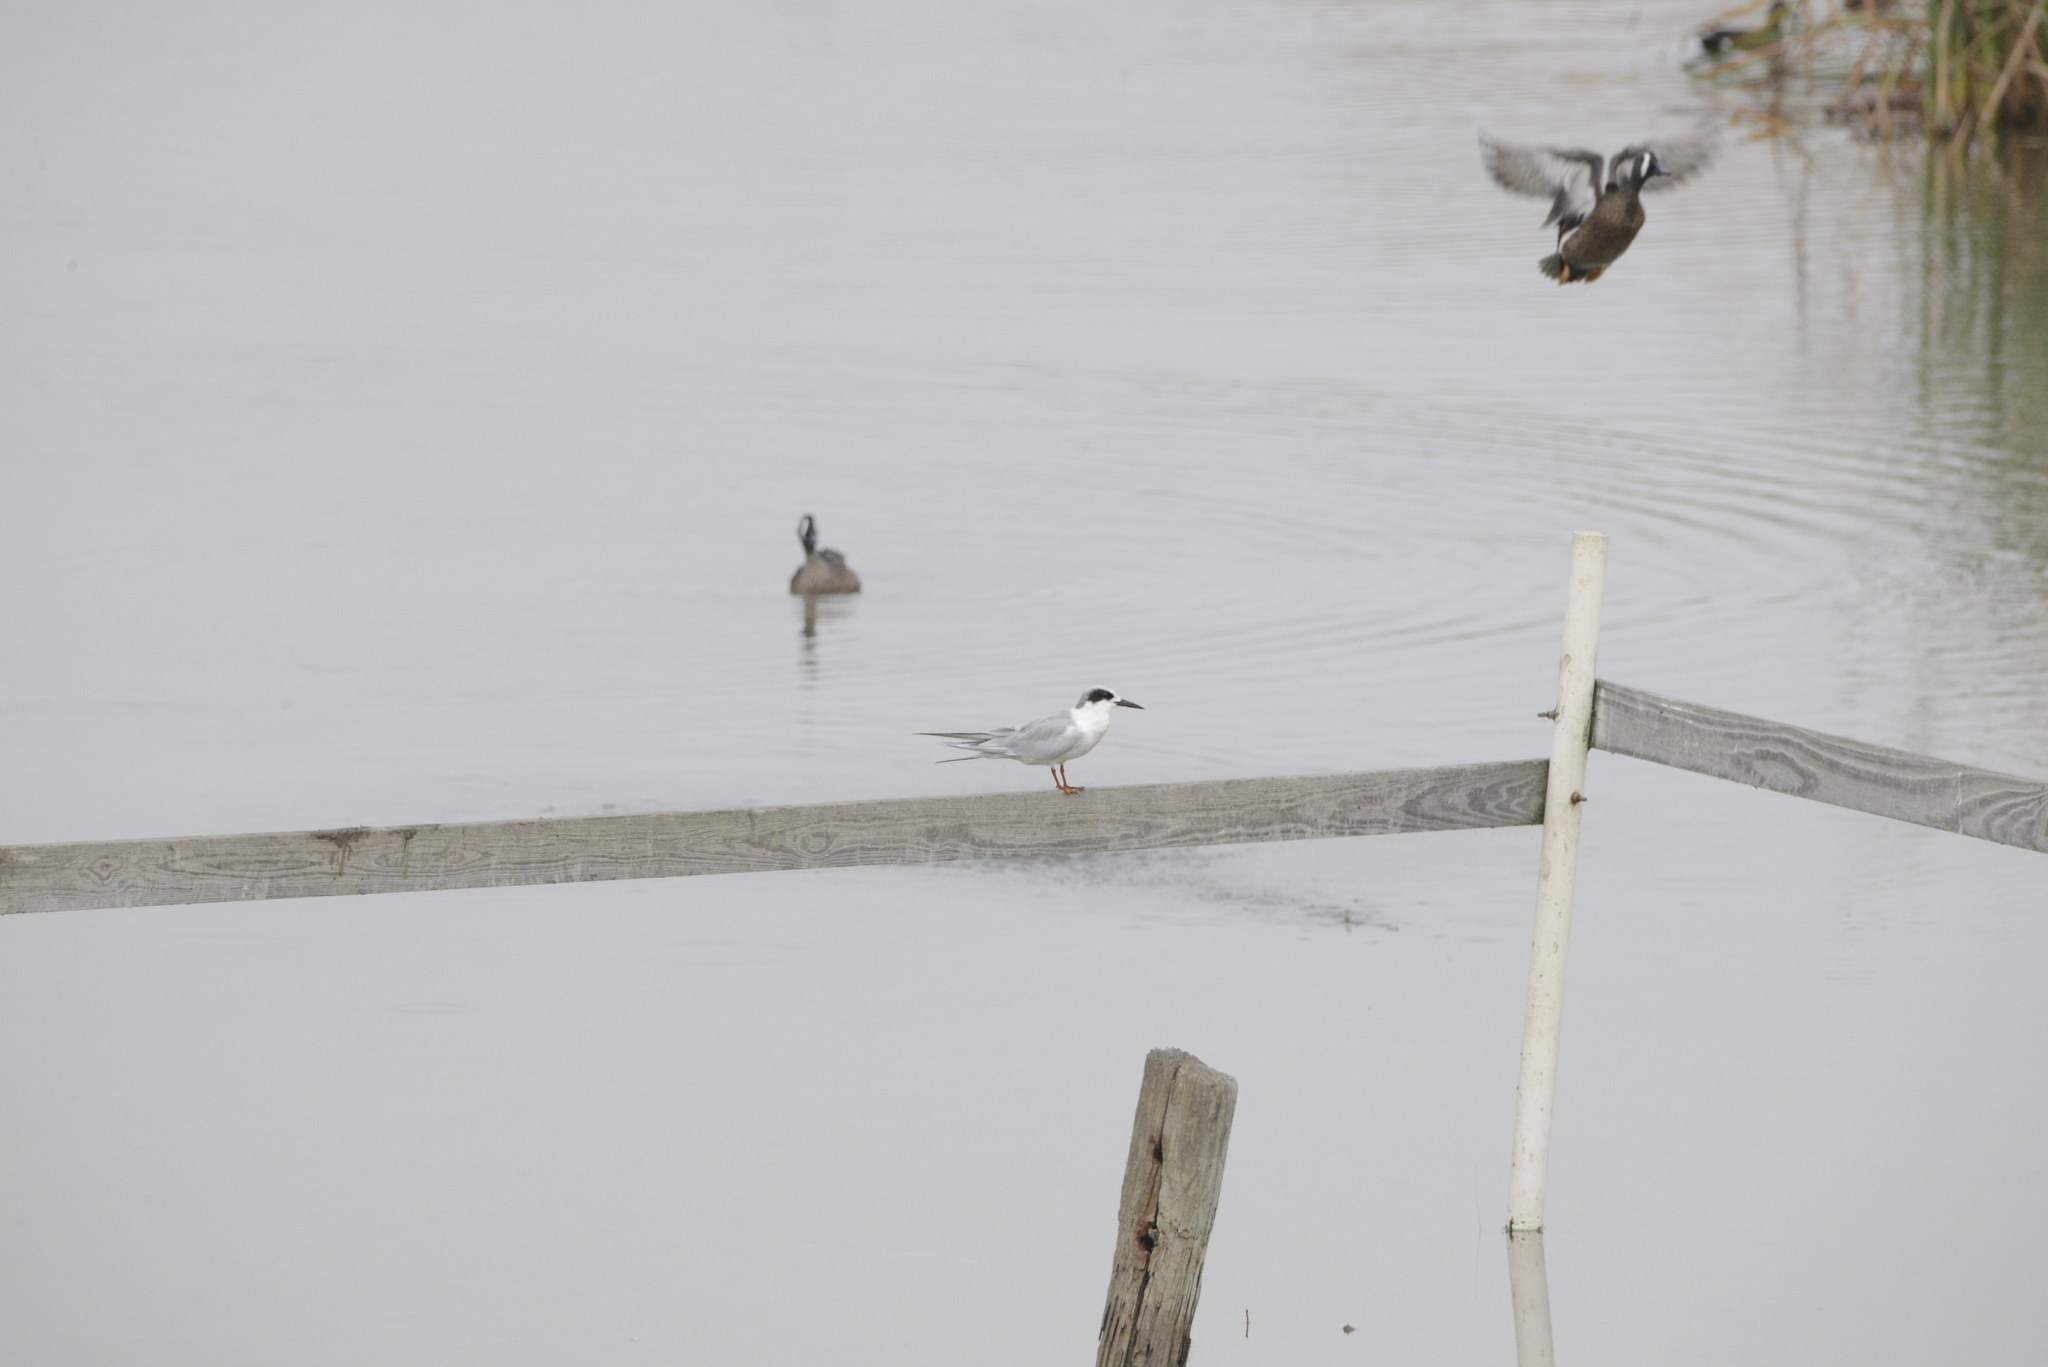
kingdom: Animalia
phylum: Chordata
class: Aves
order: Charadriiformes
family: Laridae
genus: Sterna
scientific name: Sterna forsteri
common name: Forster's tern
